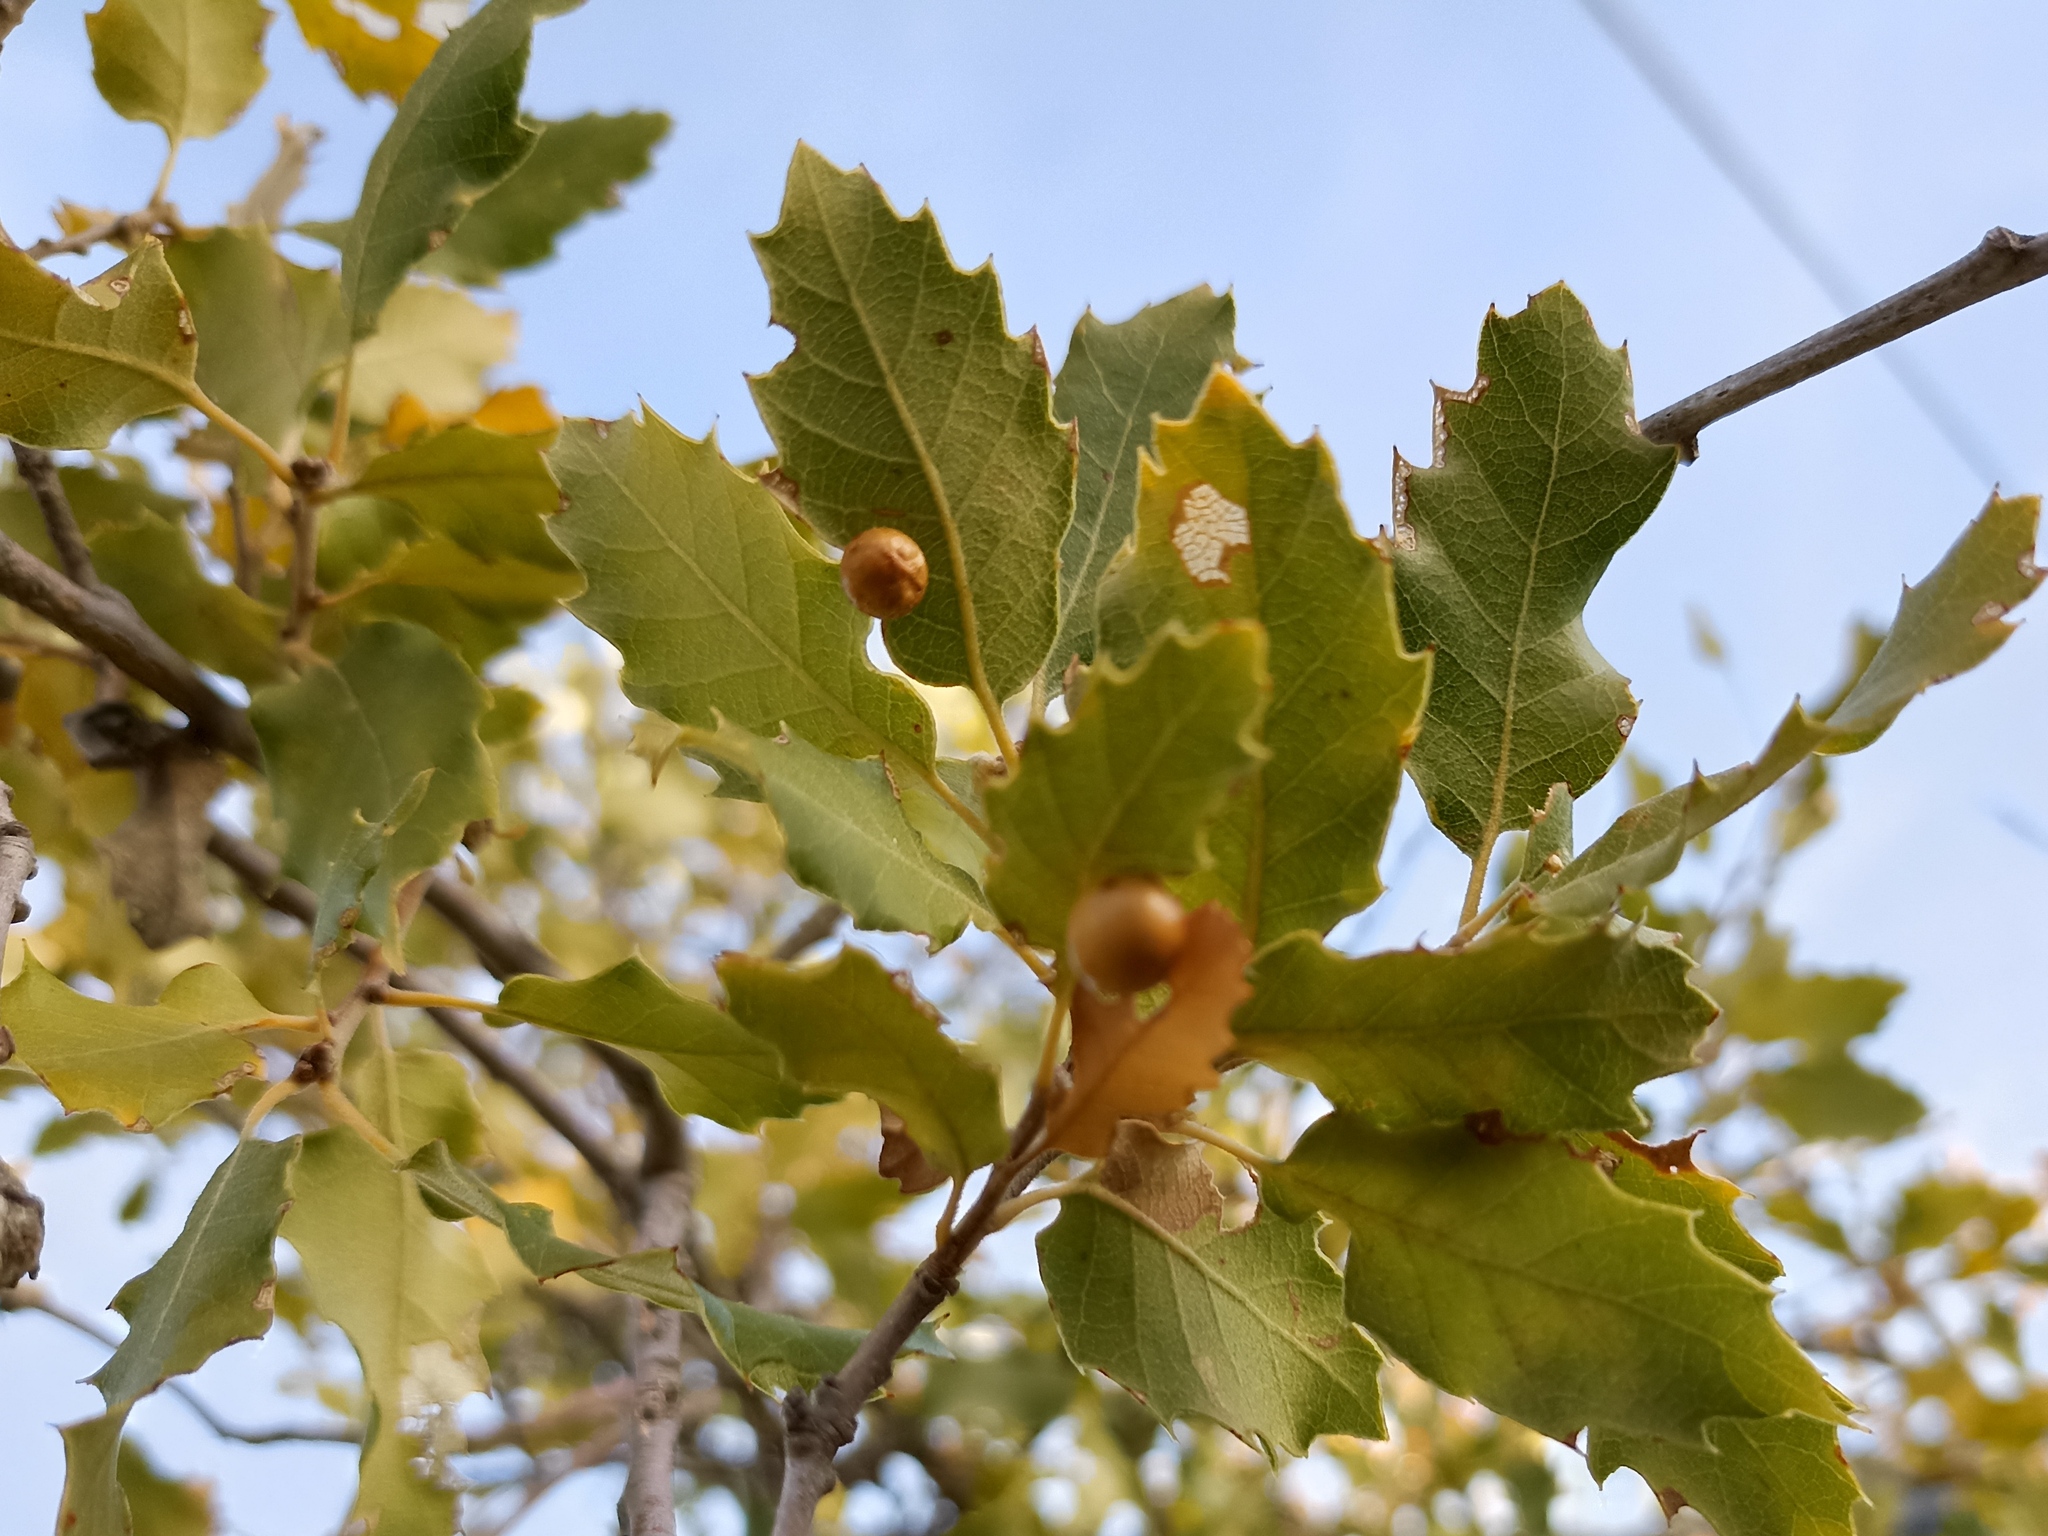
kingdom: Plantae
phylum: Tracheophyta
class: Magnoliopsida
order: Fagales
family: Fagaceae
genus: Quercus
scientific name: Quercus faginea
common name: Gall oak tree
